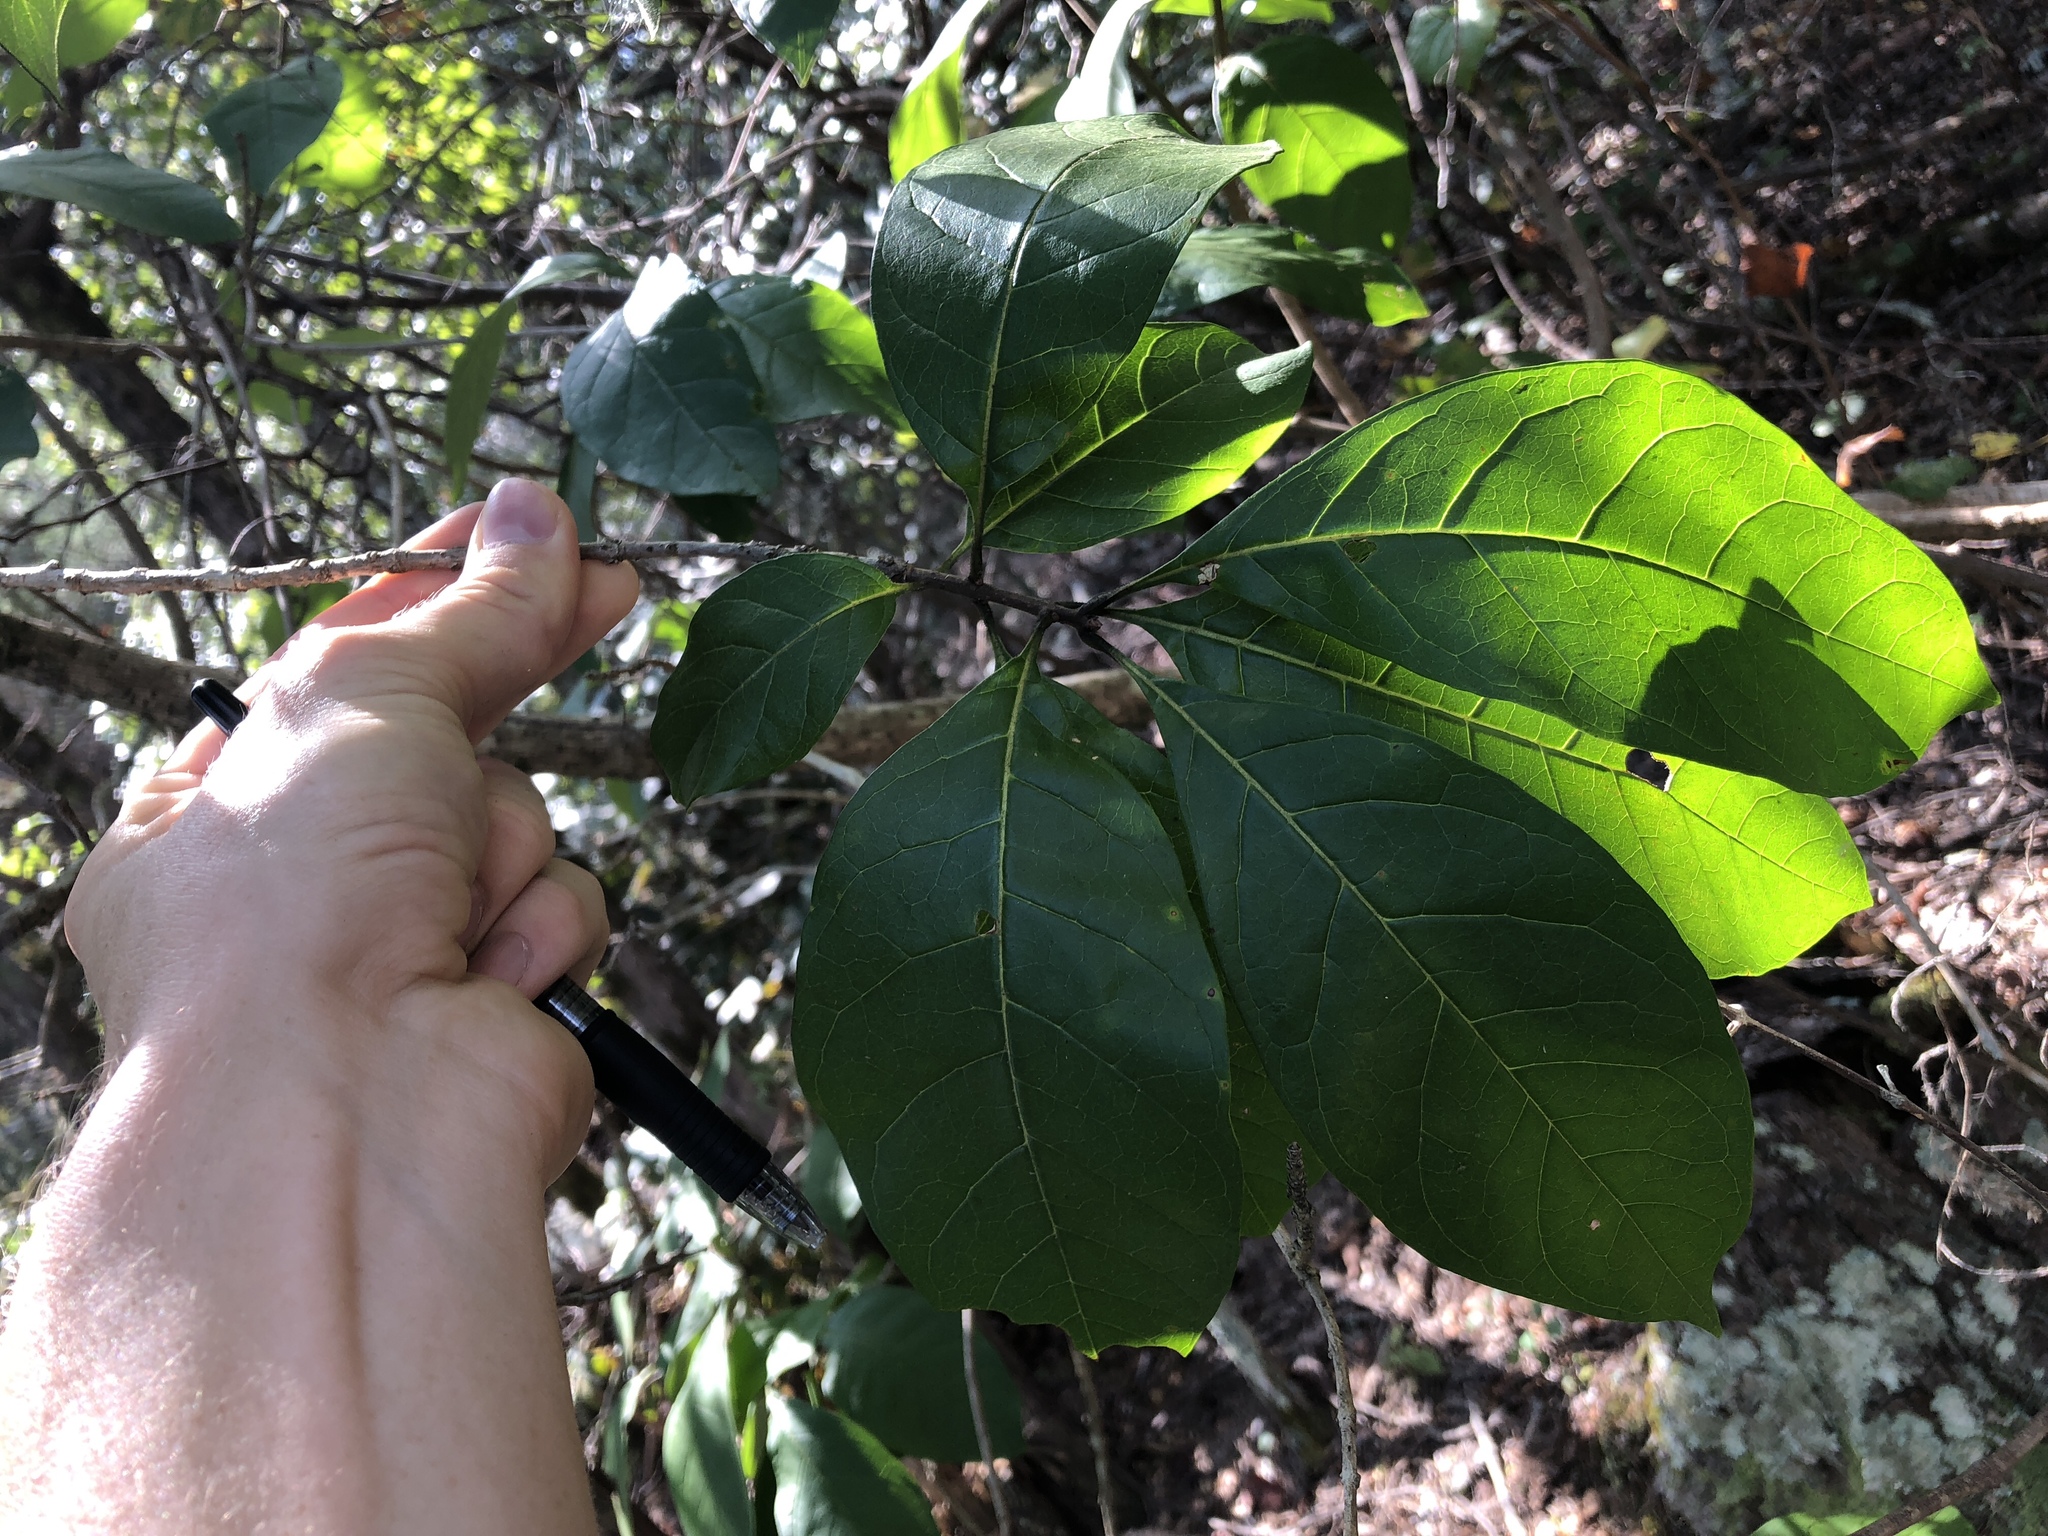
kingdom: Plantae
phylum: Tracheophyta
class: Magnoliopsida
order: Lamiales
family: Oleaceae
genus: Chionanthus
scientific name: Chionanthus virginicus
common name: American fringetree
